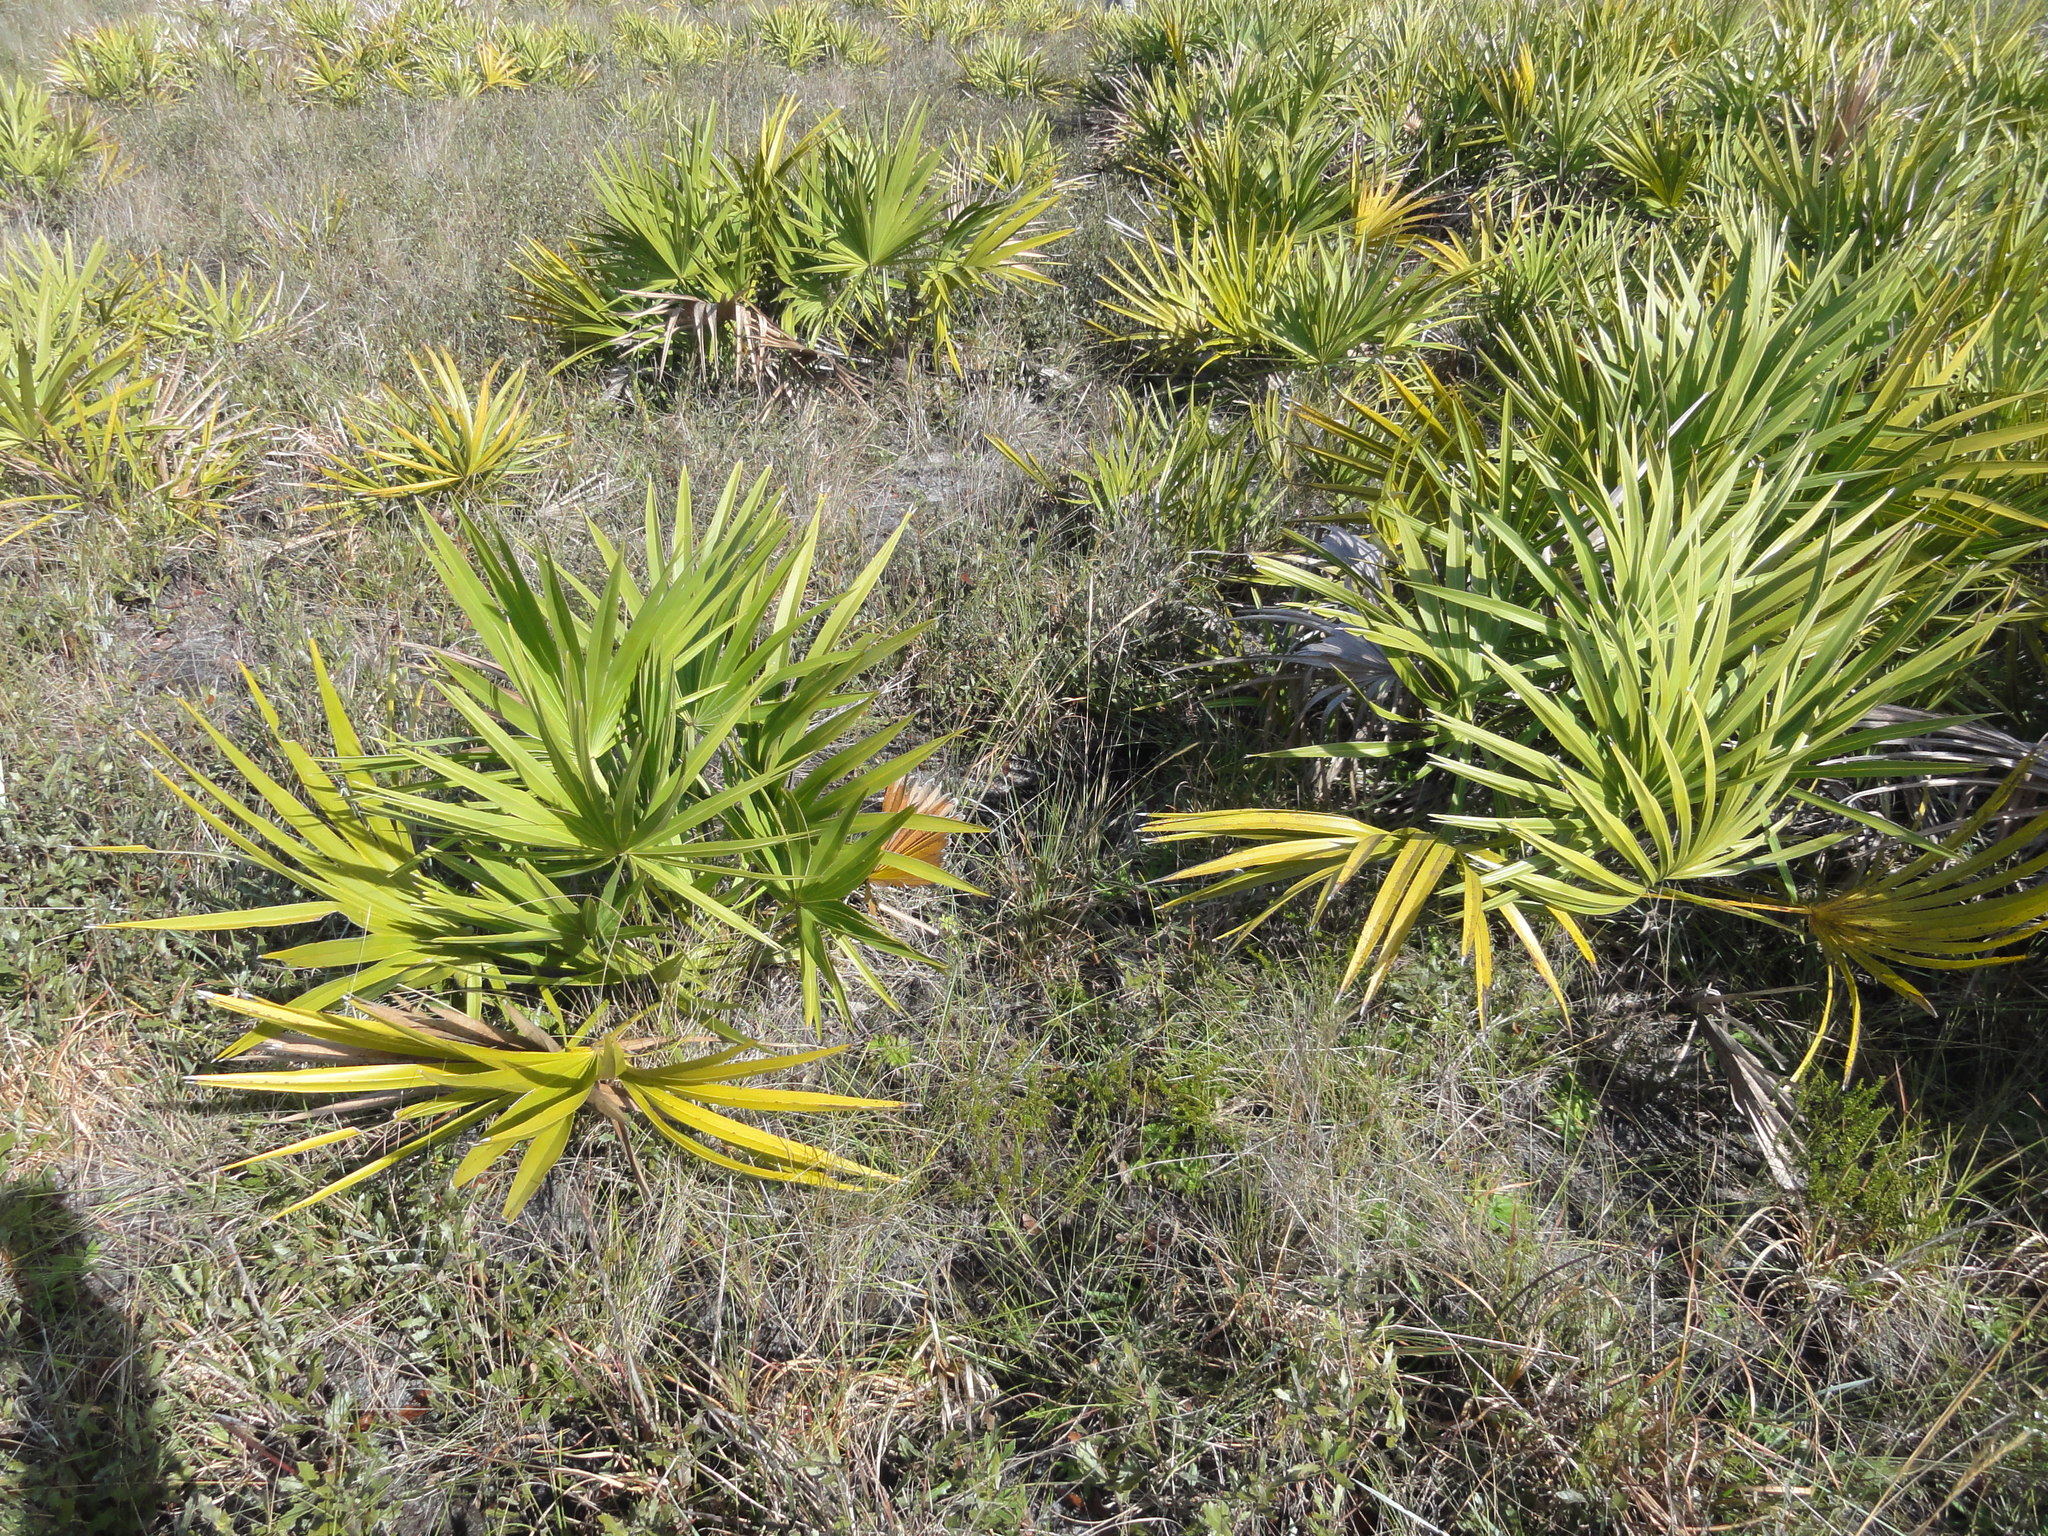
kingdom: Plantae
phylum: Tracheophyta
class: Liliopsida
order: Arecales
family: Arecaceae
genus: Serenoa
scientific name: Serenoa repens
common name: Saw-palmetto
